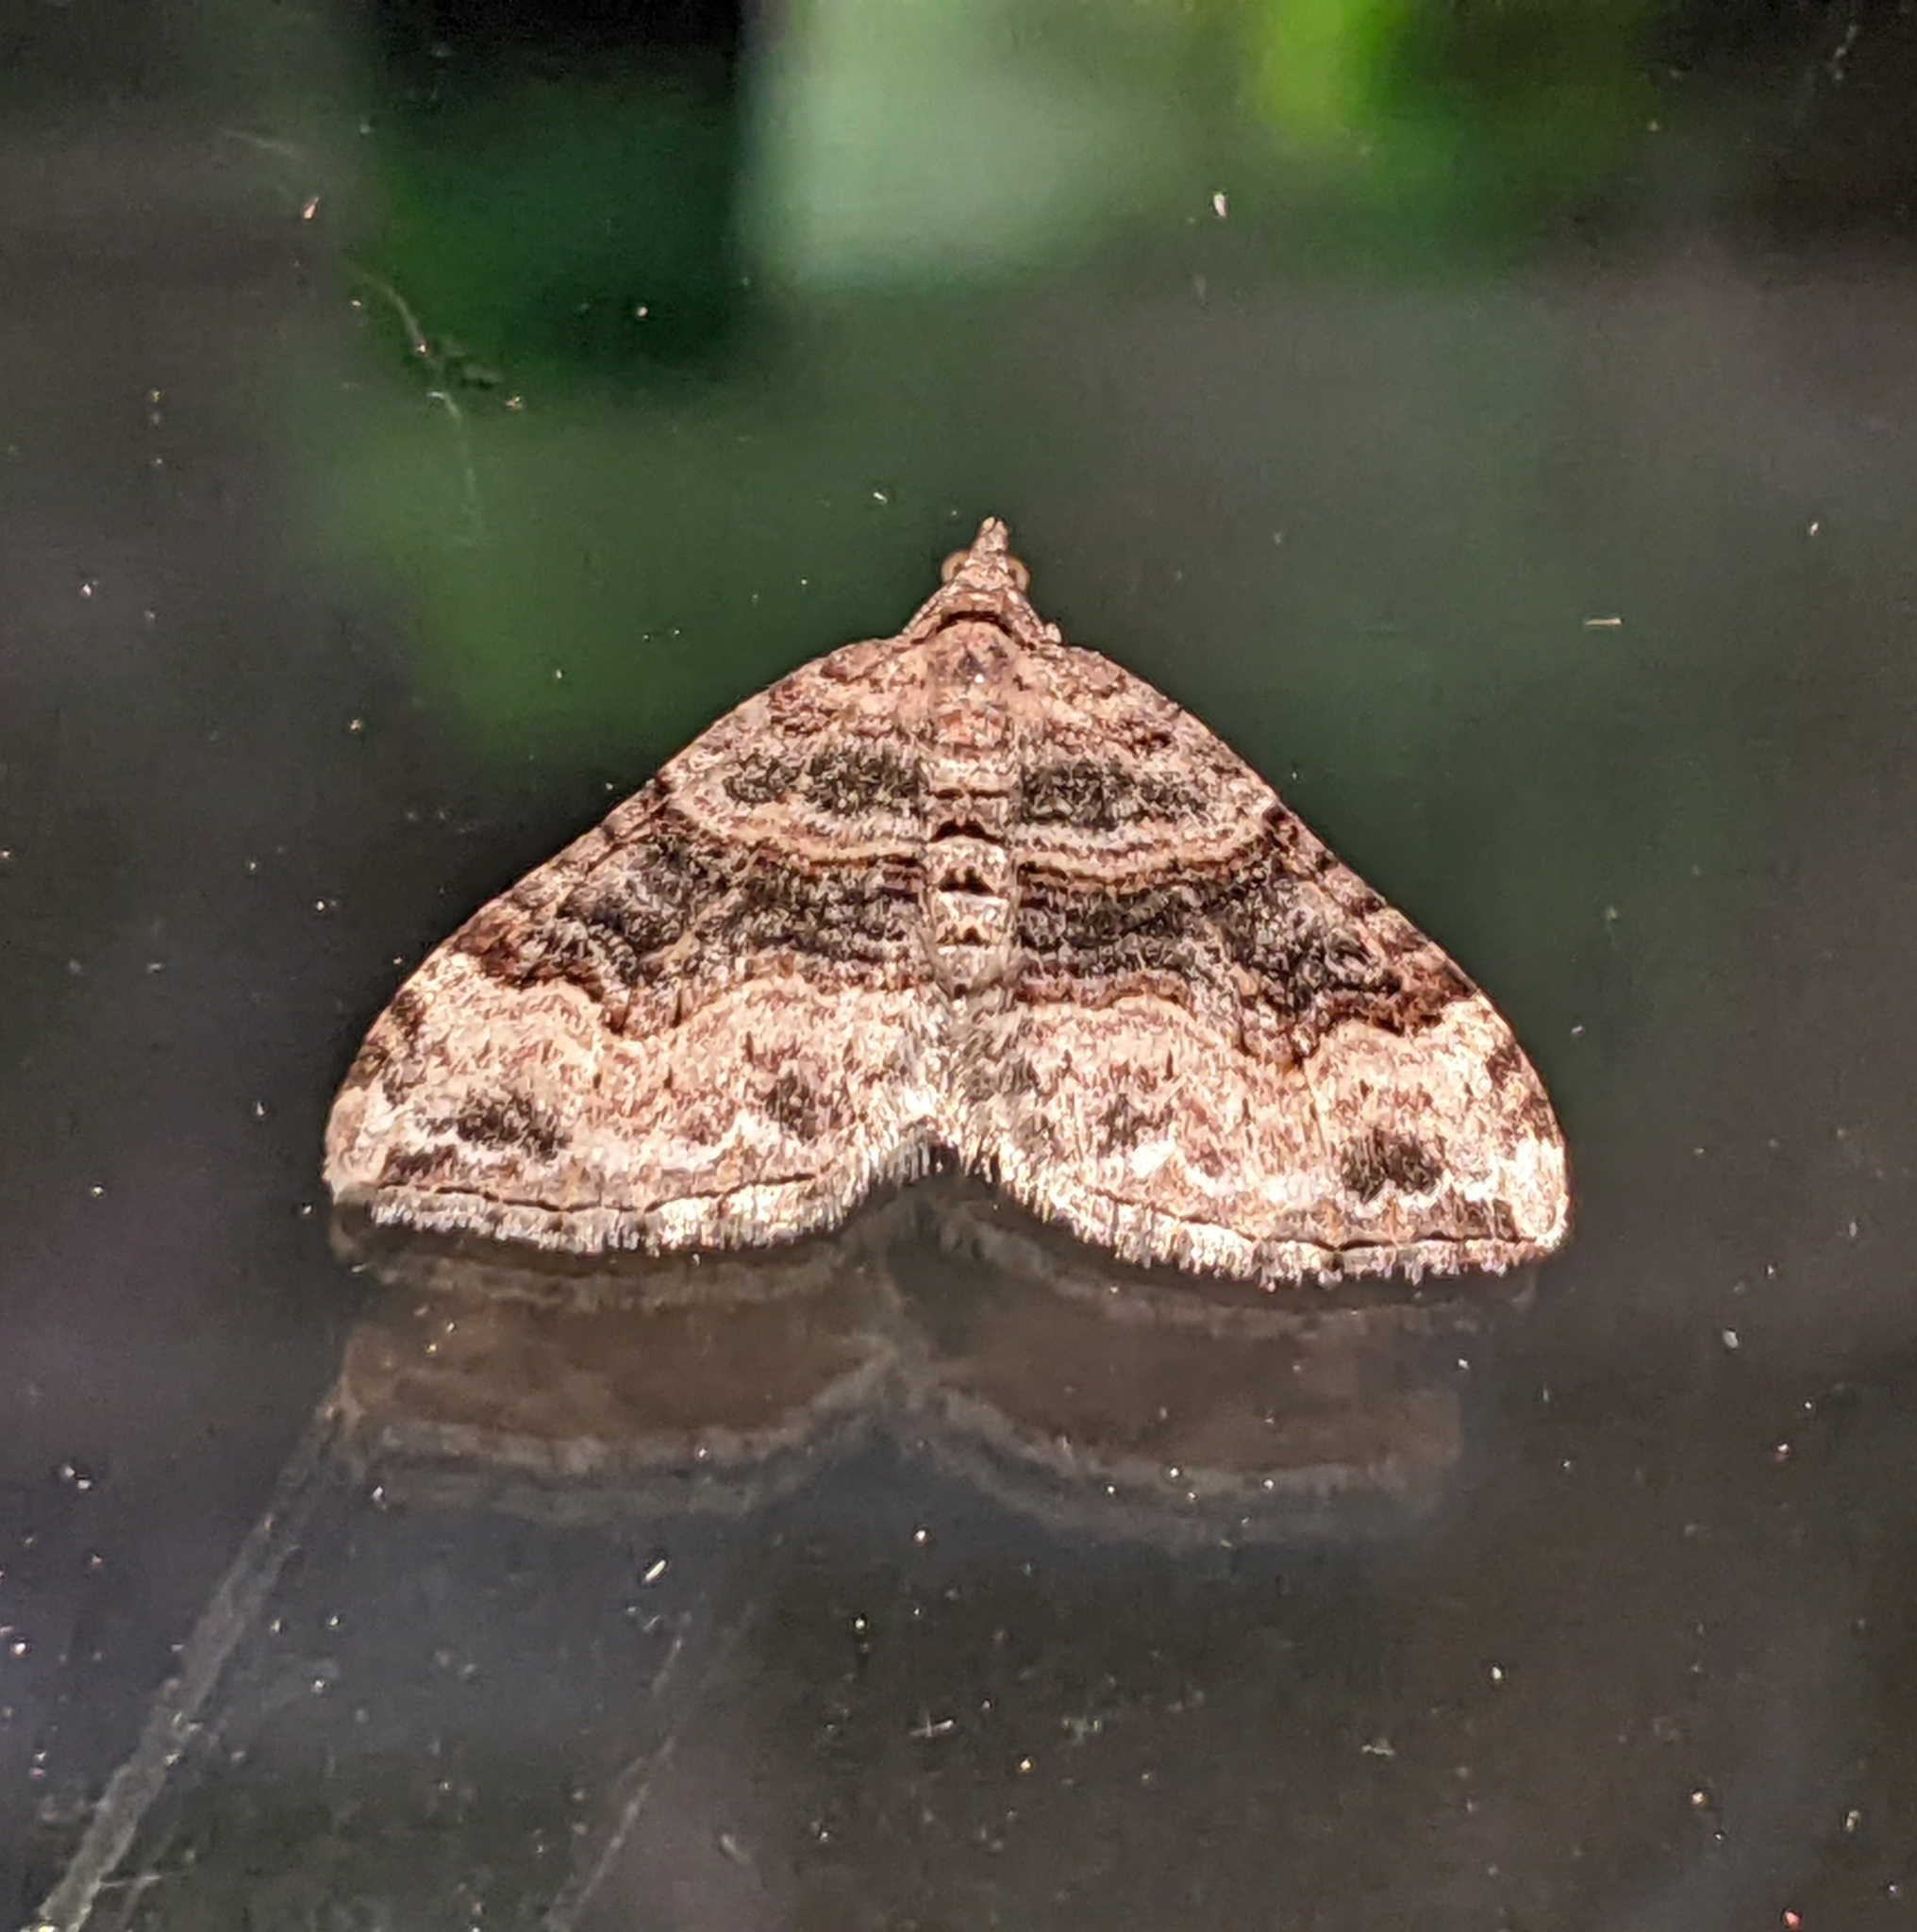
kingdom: Animalia
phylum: Arthropoda
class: Insecta
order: Lepidoptera
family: Geometridae
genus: Xanthorhoe
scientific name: Xanthorhoe defensaria
